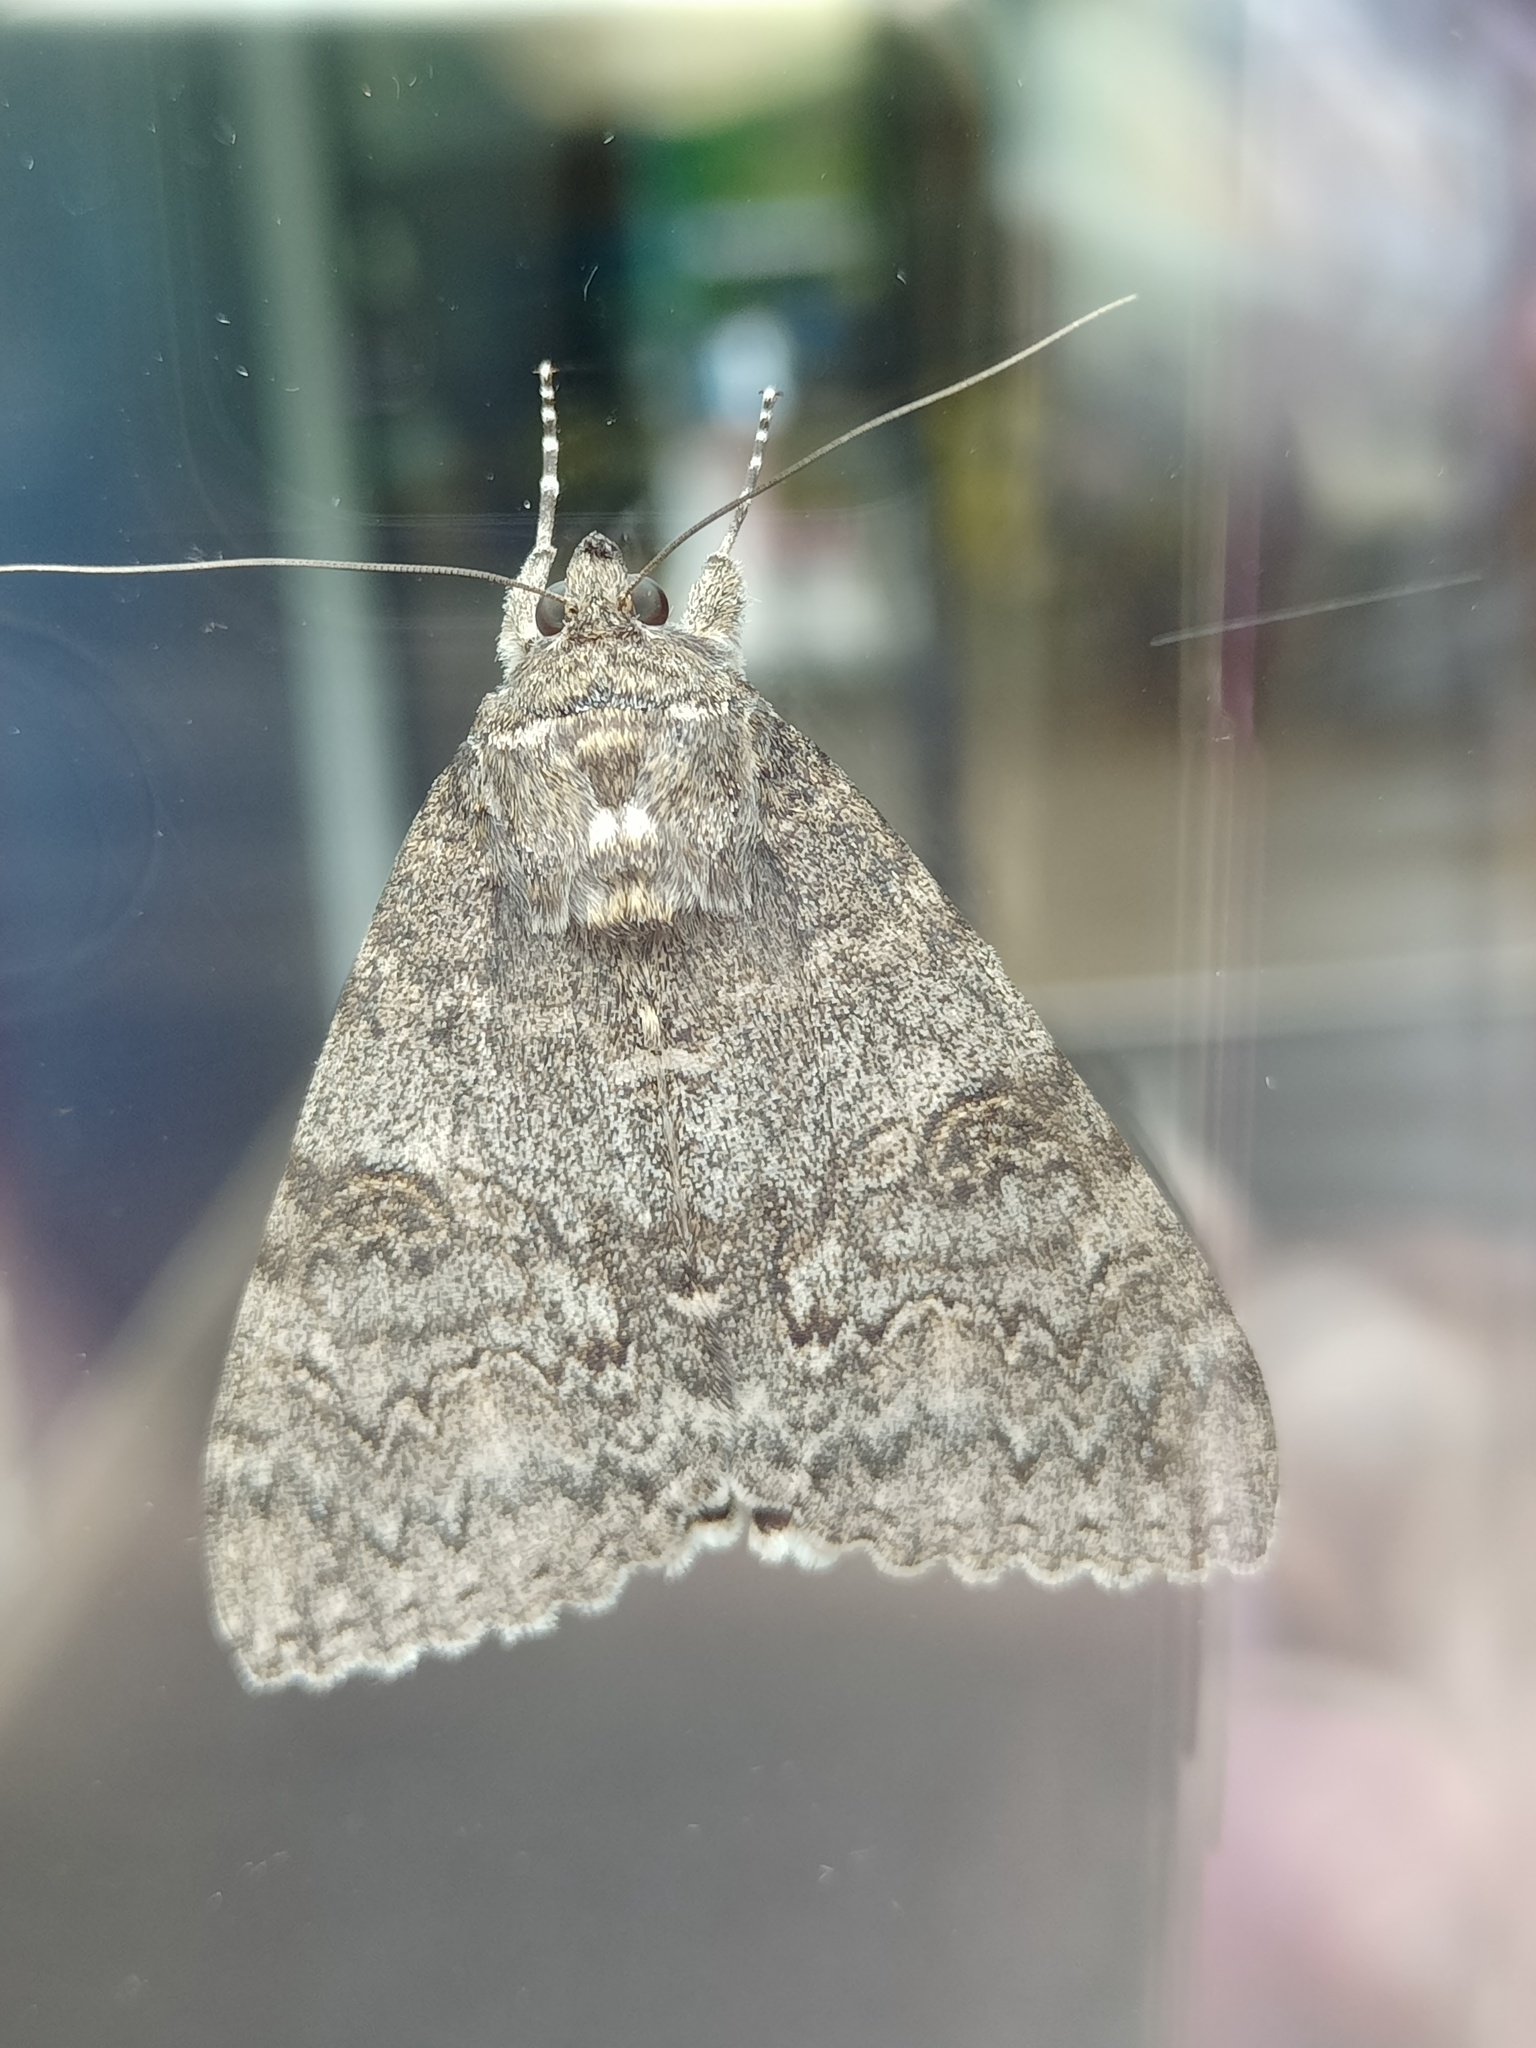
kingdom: Animalia
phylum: Arthropoda
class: Insecta
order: Lepidoptera
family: Erebidae
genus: Catocala
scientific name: Catocala nupta
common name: Red underwing
